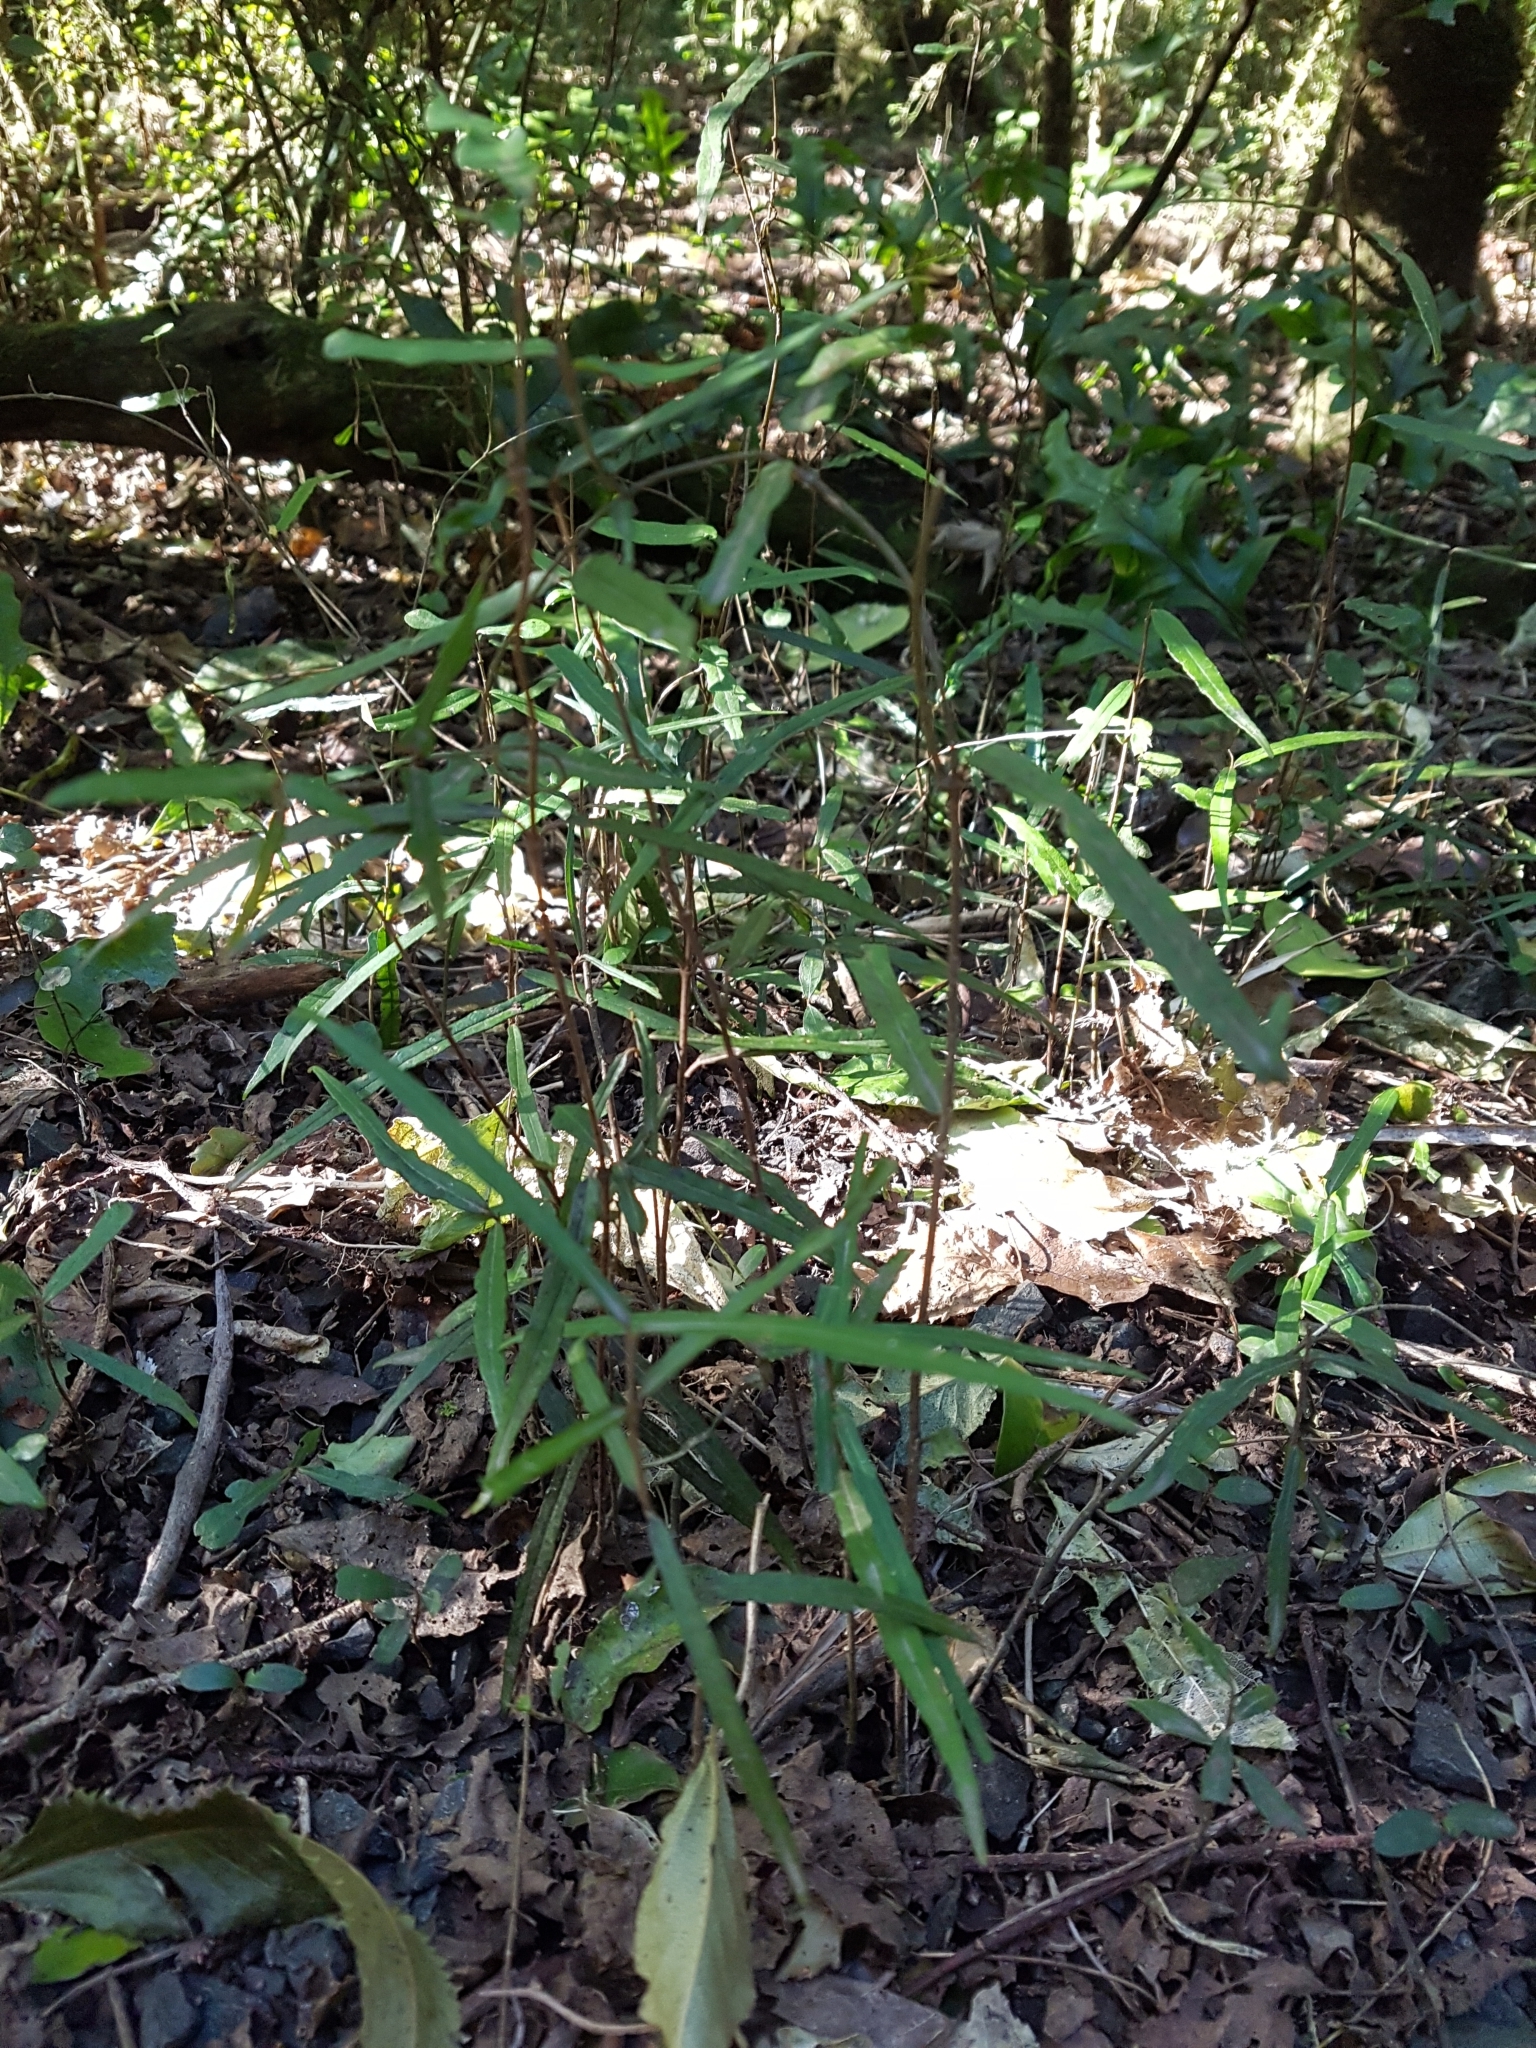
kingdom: Plantae
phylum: Tracheophyta
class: Magnoliopsida
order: Gentianales
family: Apocynaceae
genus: Parsonsia
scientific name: Parsonsia heterophylla
